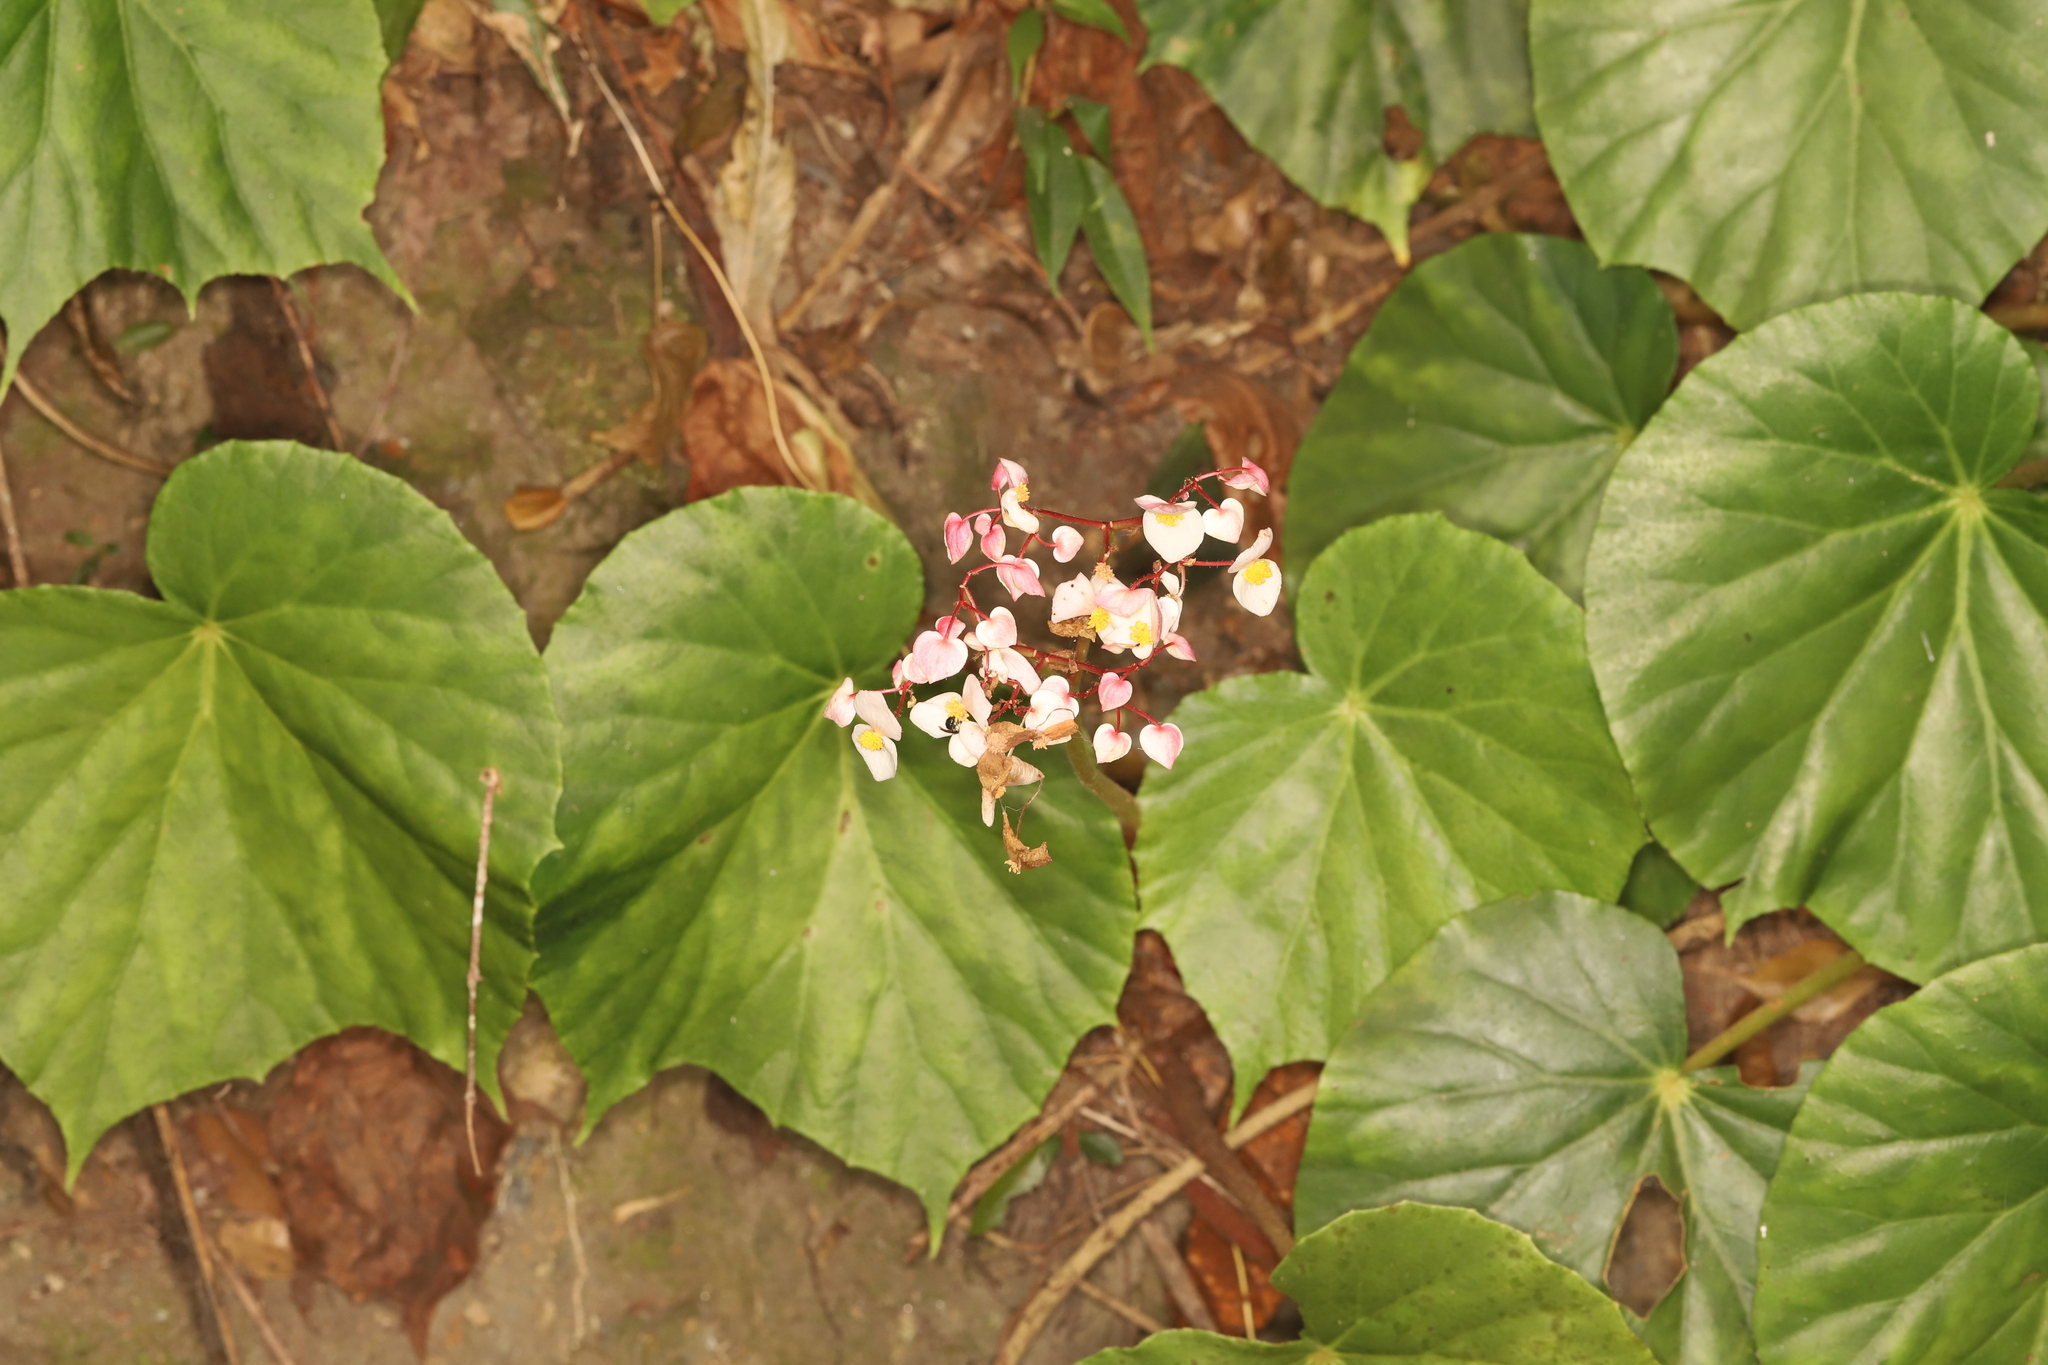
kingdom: Plantae
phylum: Tracheophyta
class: Magnoliopsida
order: Cucurbitales
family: Begoniaceae
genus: Begonia
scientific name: Begonia urophylla
